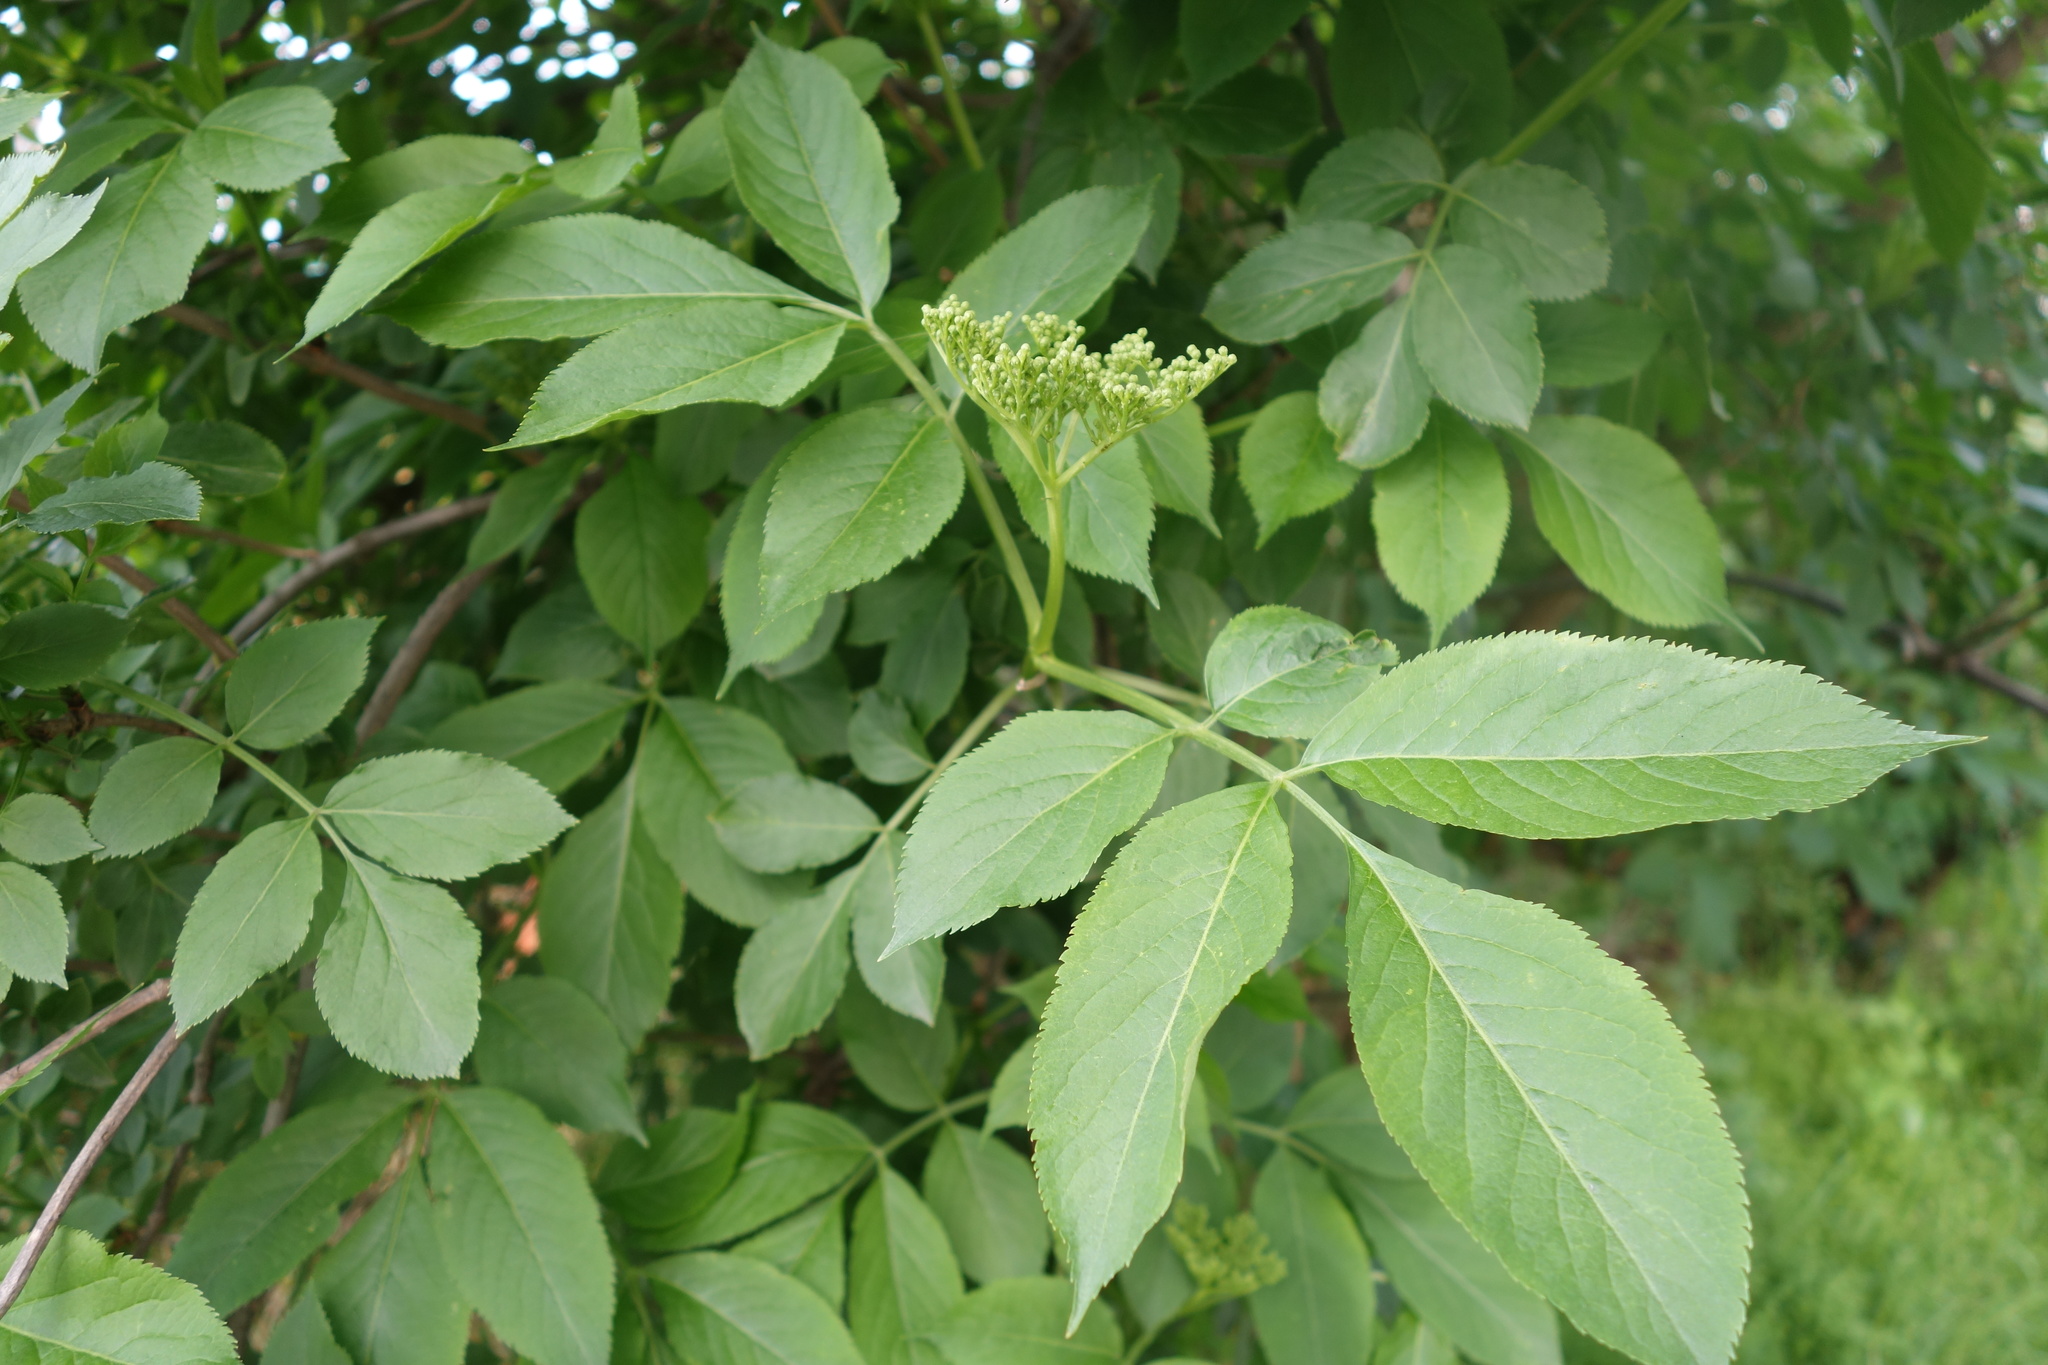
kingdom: Plantae
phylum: Tracheophyta
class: Magnoliopsida
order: Dipsacales
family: Viburnaceae
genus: Sambucus
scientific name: Sambucus nigra
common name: Elder
